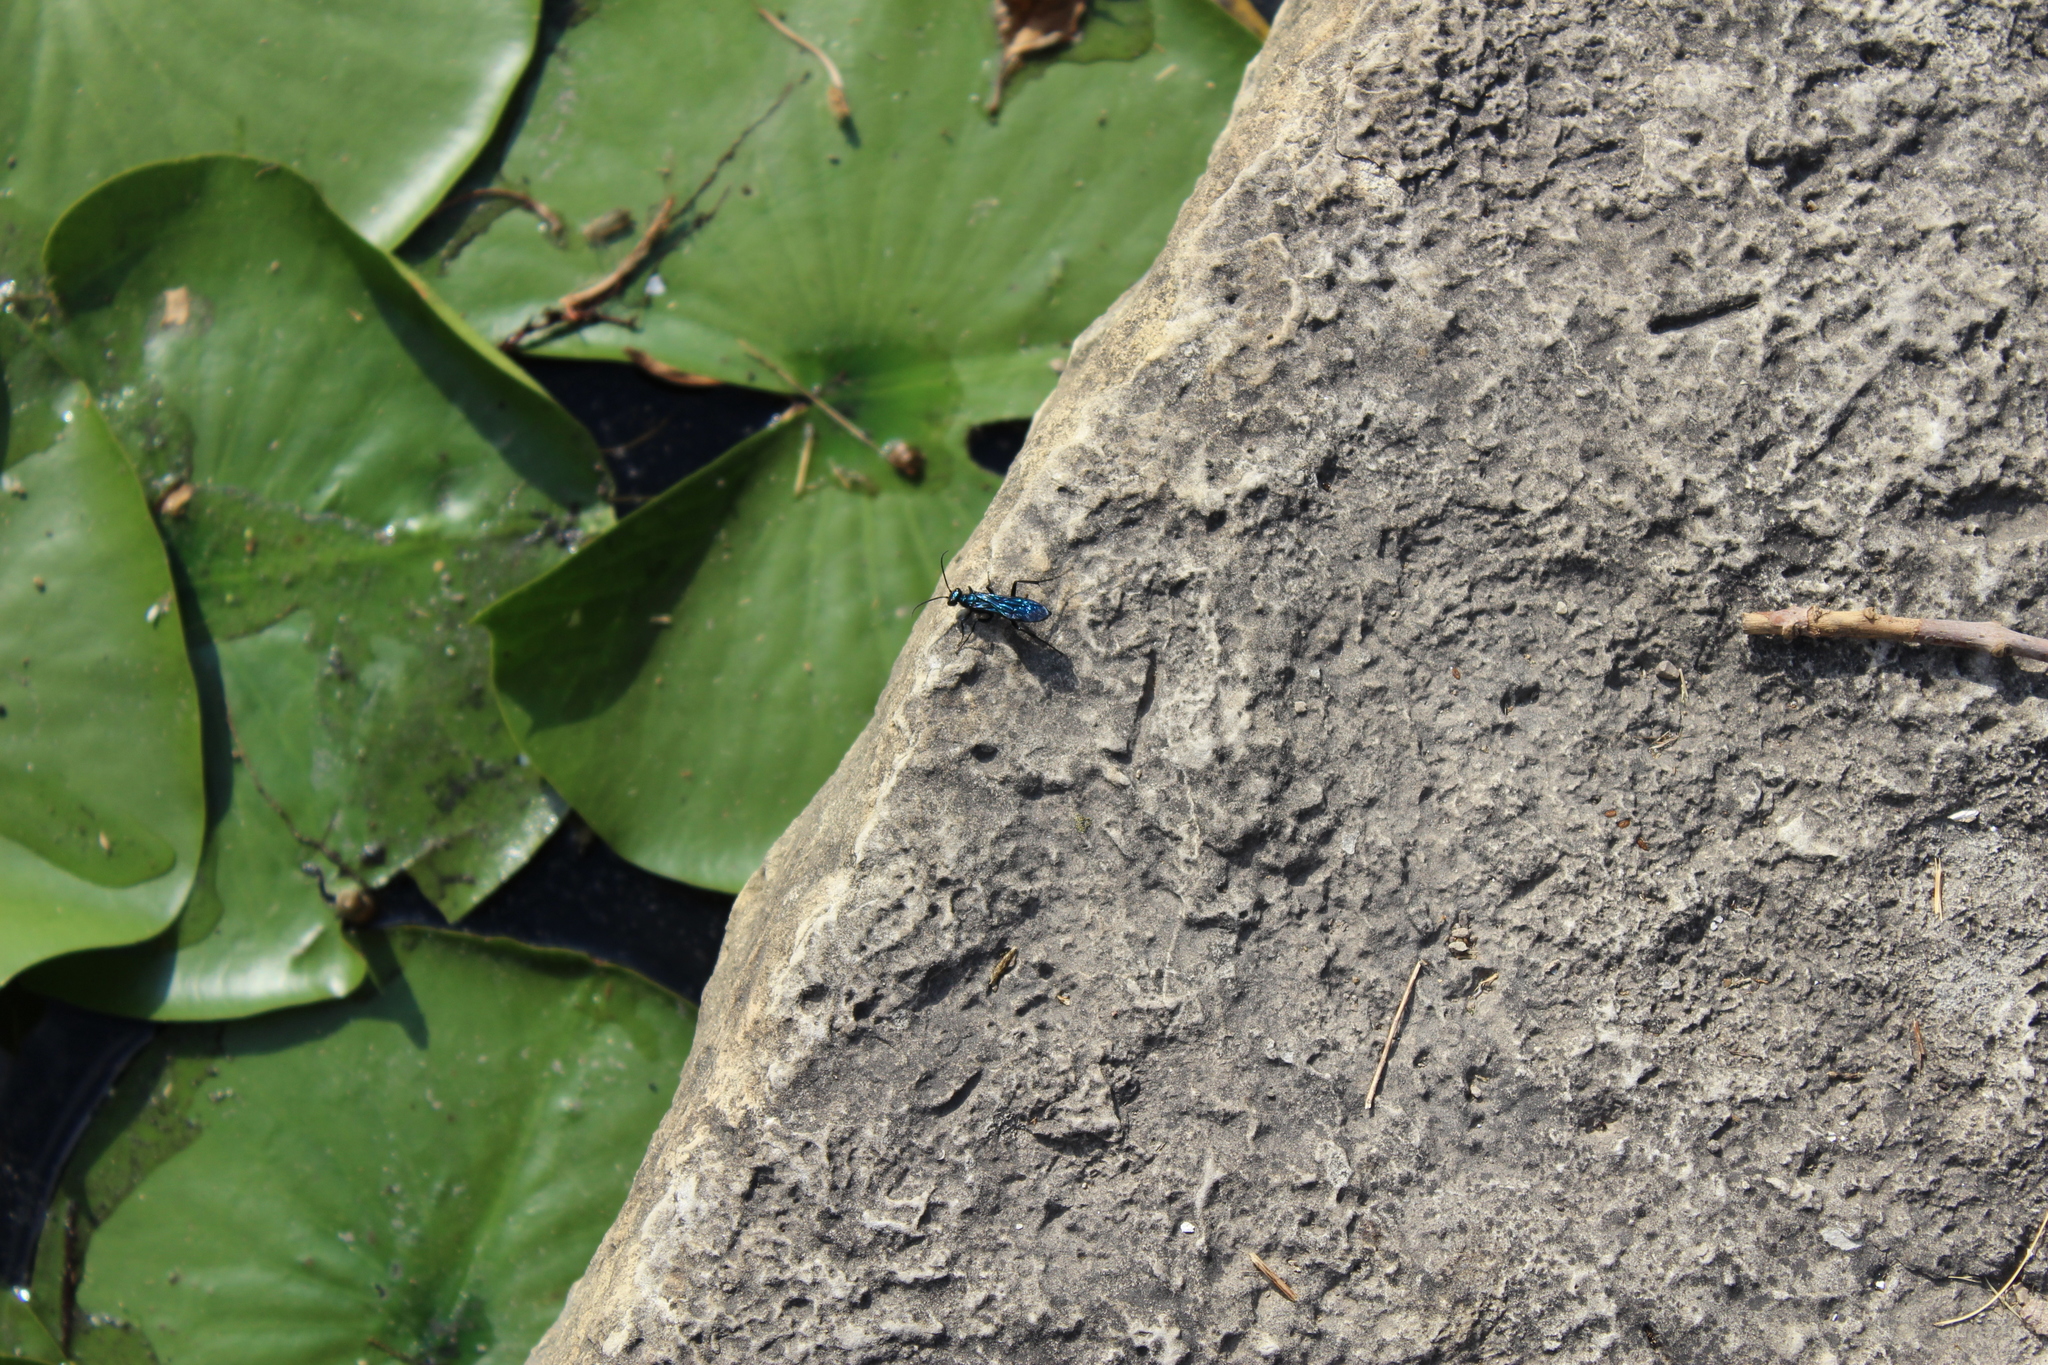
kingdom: Animalia
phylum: Arthropoda
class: Insecta
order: Hymenoptera
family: Sphecidae
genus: Chalybion
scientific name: Chalybion californicum
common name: Mud dauber
